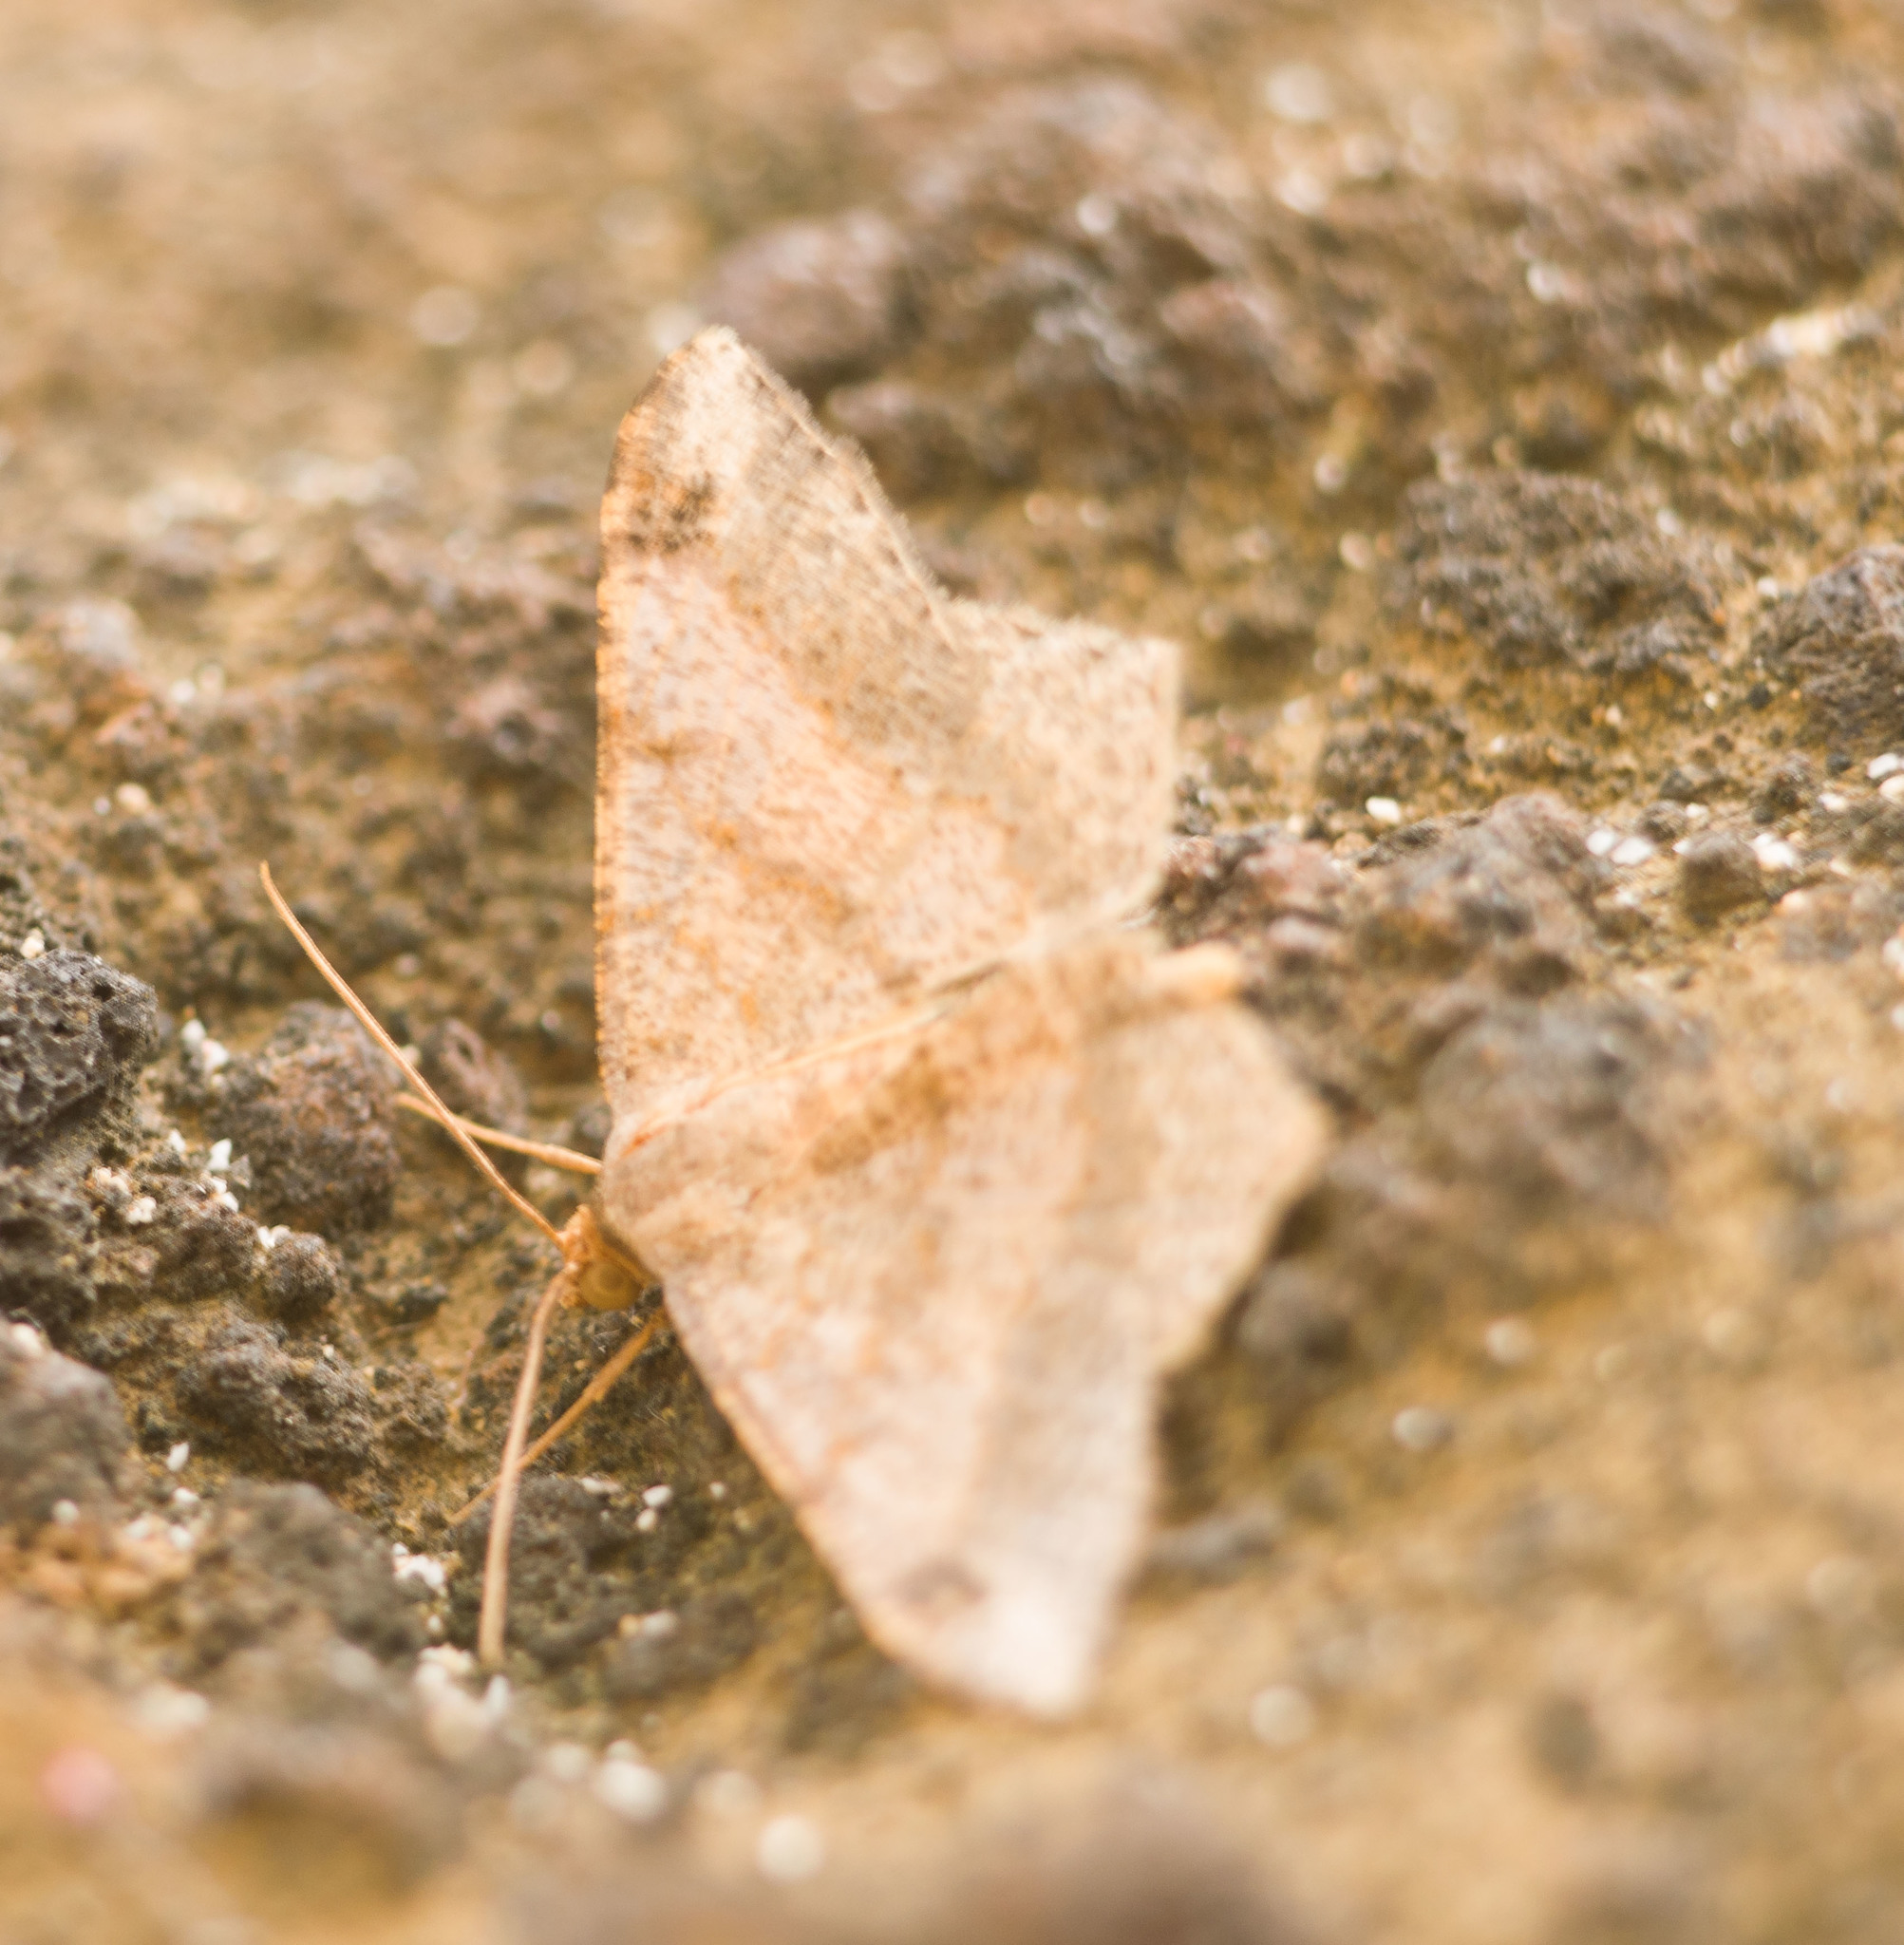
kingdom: Animalia
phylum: Arthropoda
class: Insecta
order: Lepidoptera
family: Geometridae
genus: Macaria
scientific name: Macaria abydata
